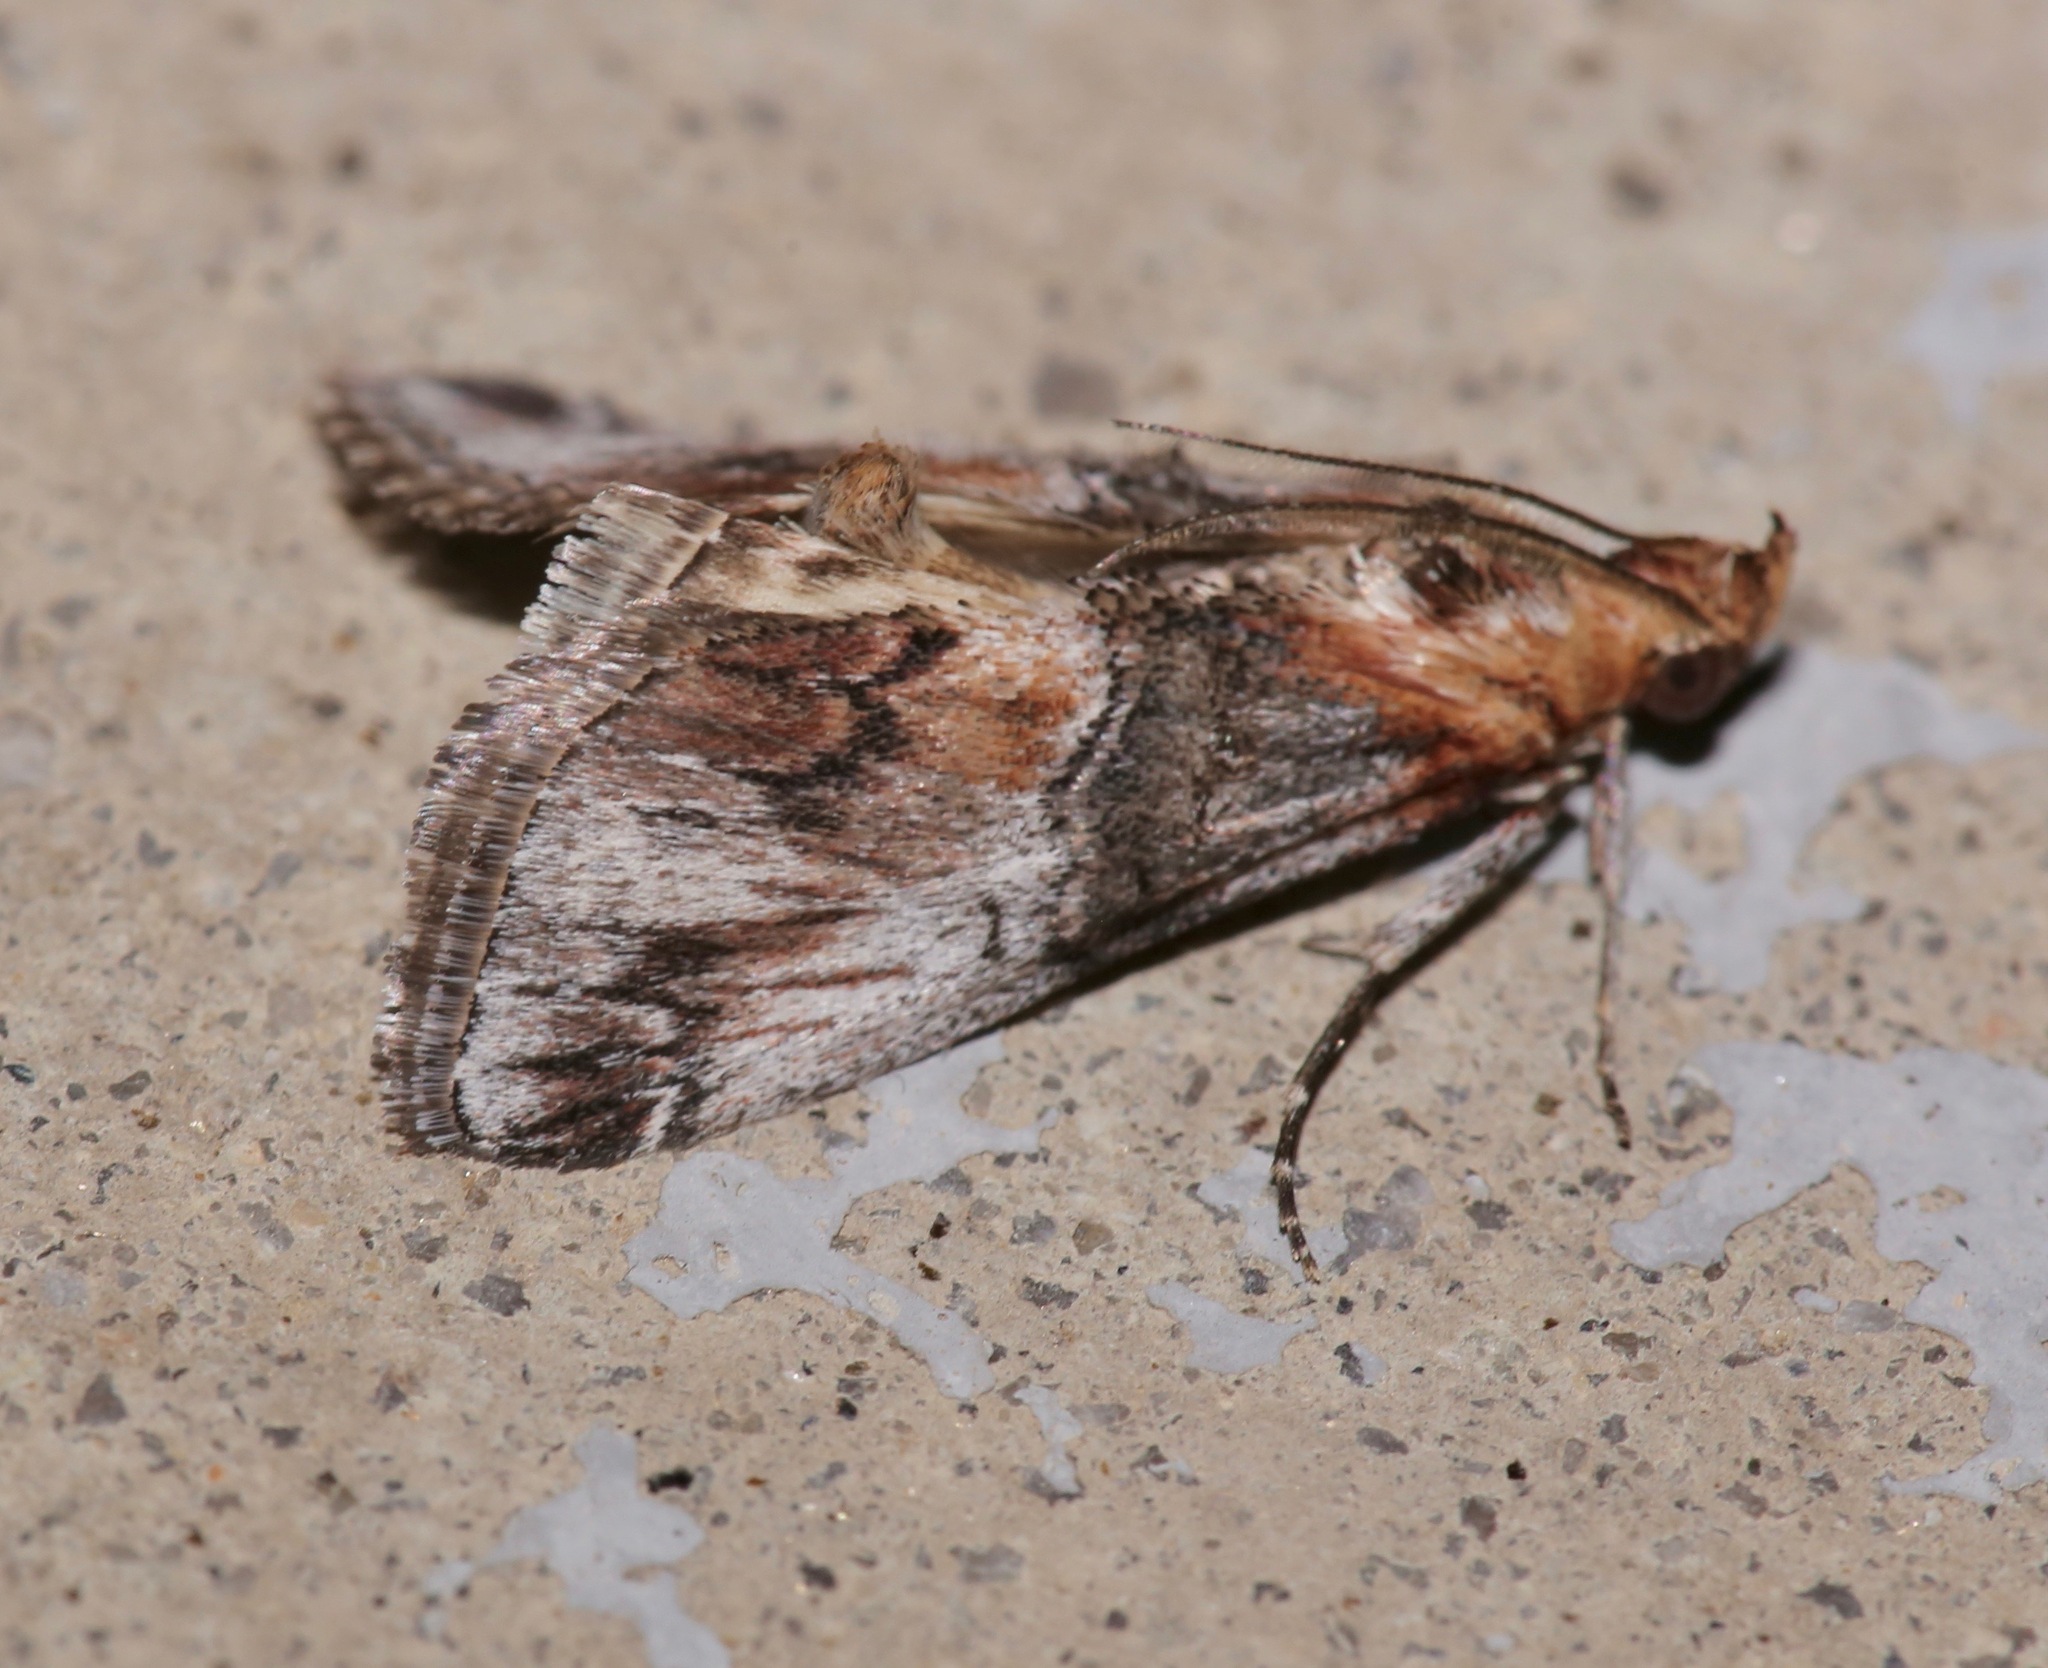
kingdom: Animalia
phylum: Arthropoda
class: Insecta
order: Lepidoptera
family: Pyralidae
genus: Toripalpus
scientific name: Toripalpus trabalis
